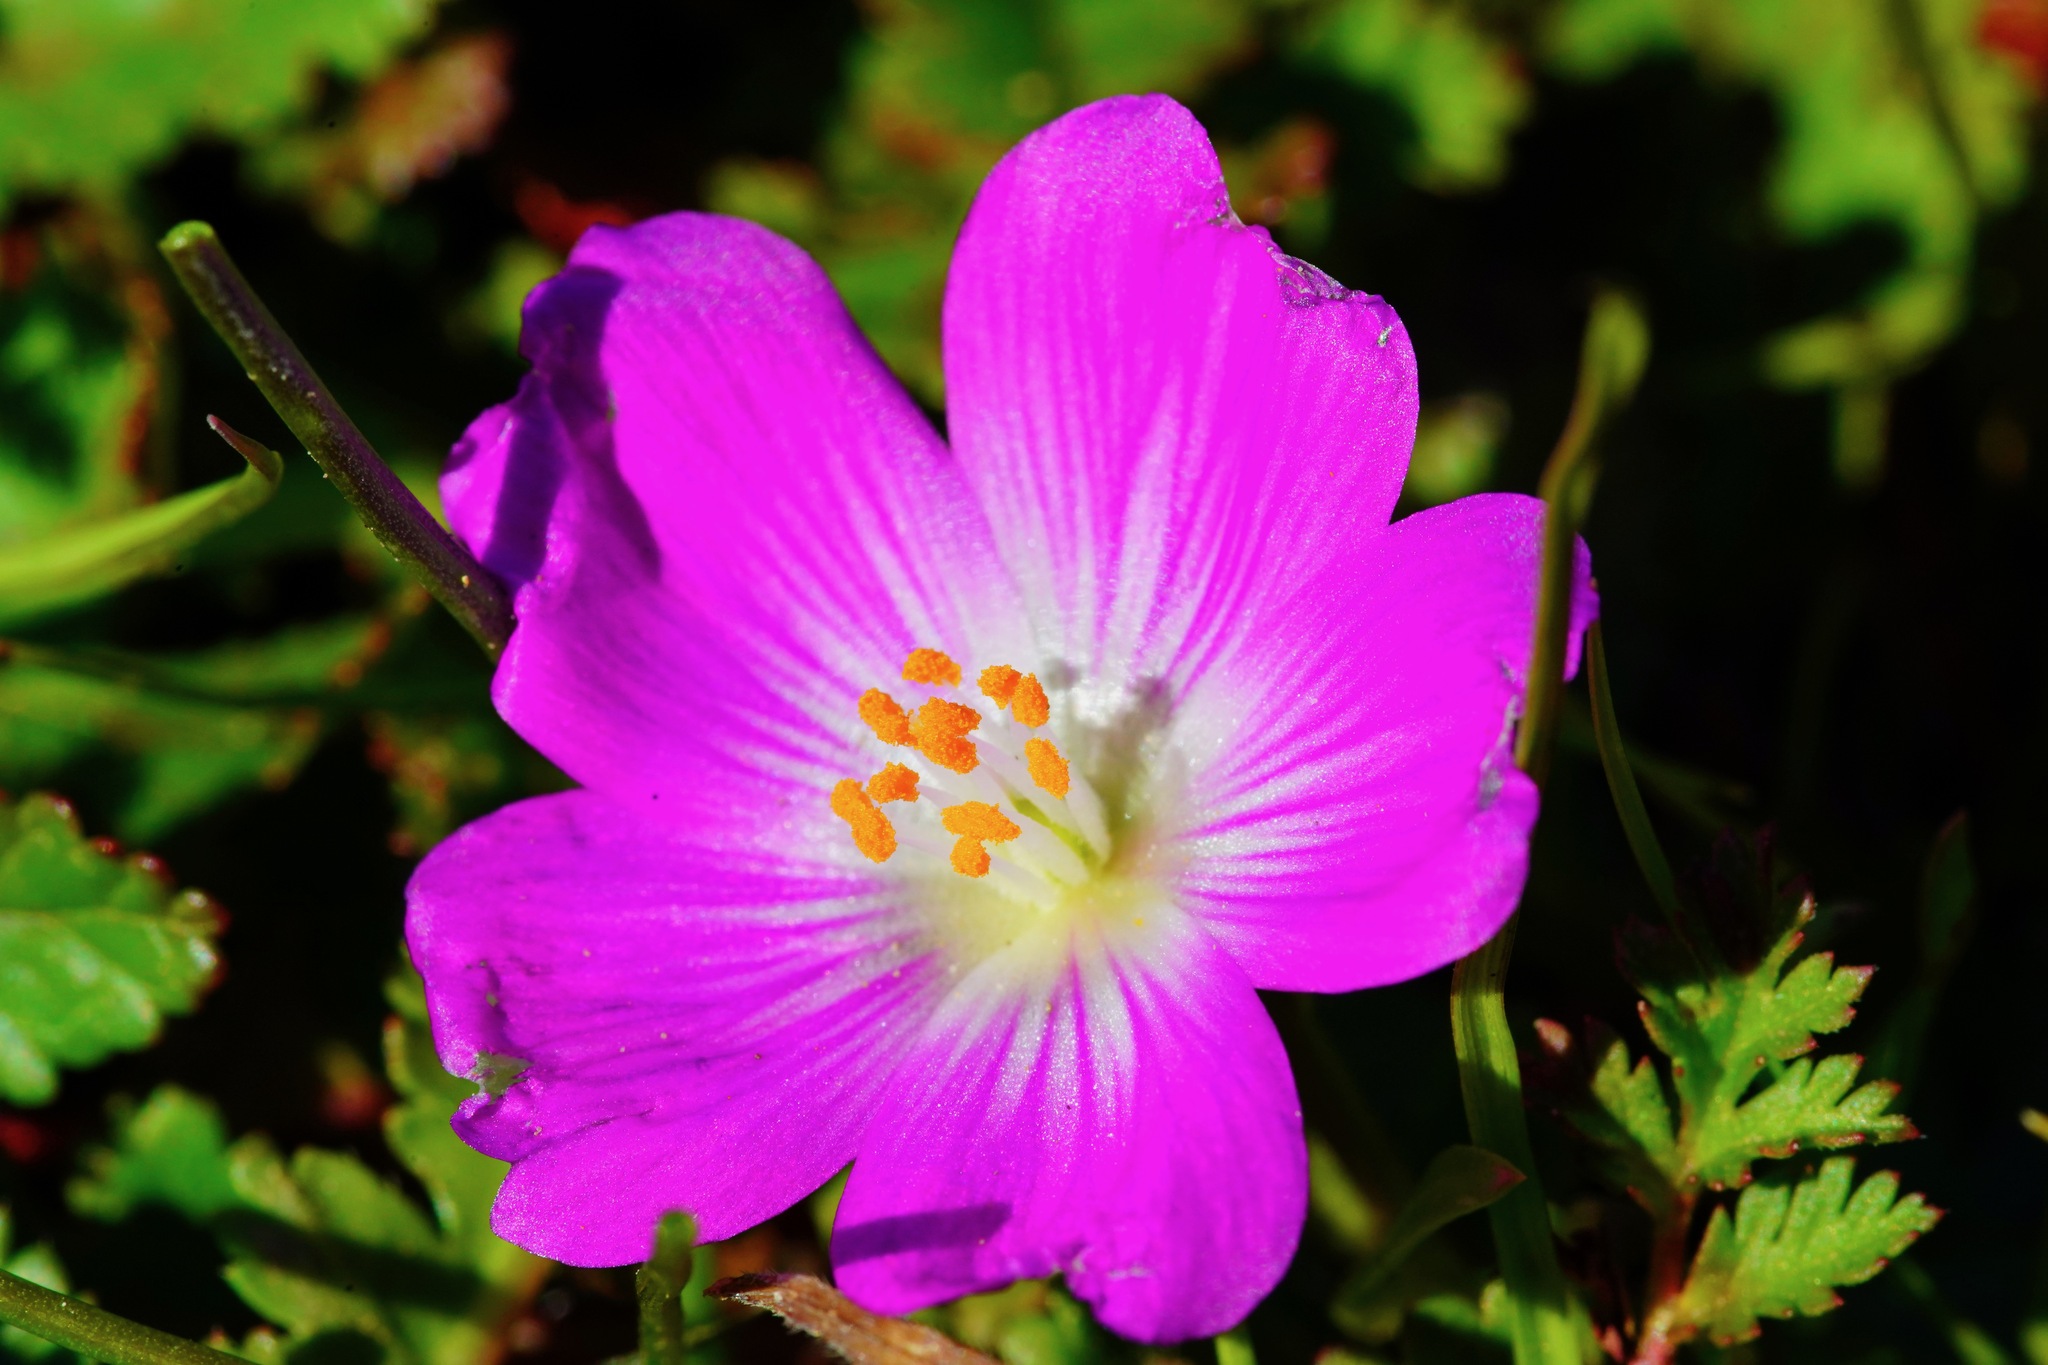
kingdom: Plantae
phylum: Tracheophyta
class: Magnoliopsida
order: Caryophyllales
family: Montiaceae
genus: Calandrinia
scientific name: Calandrinia menziesii
